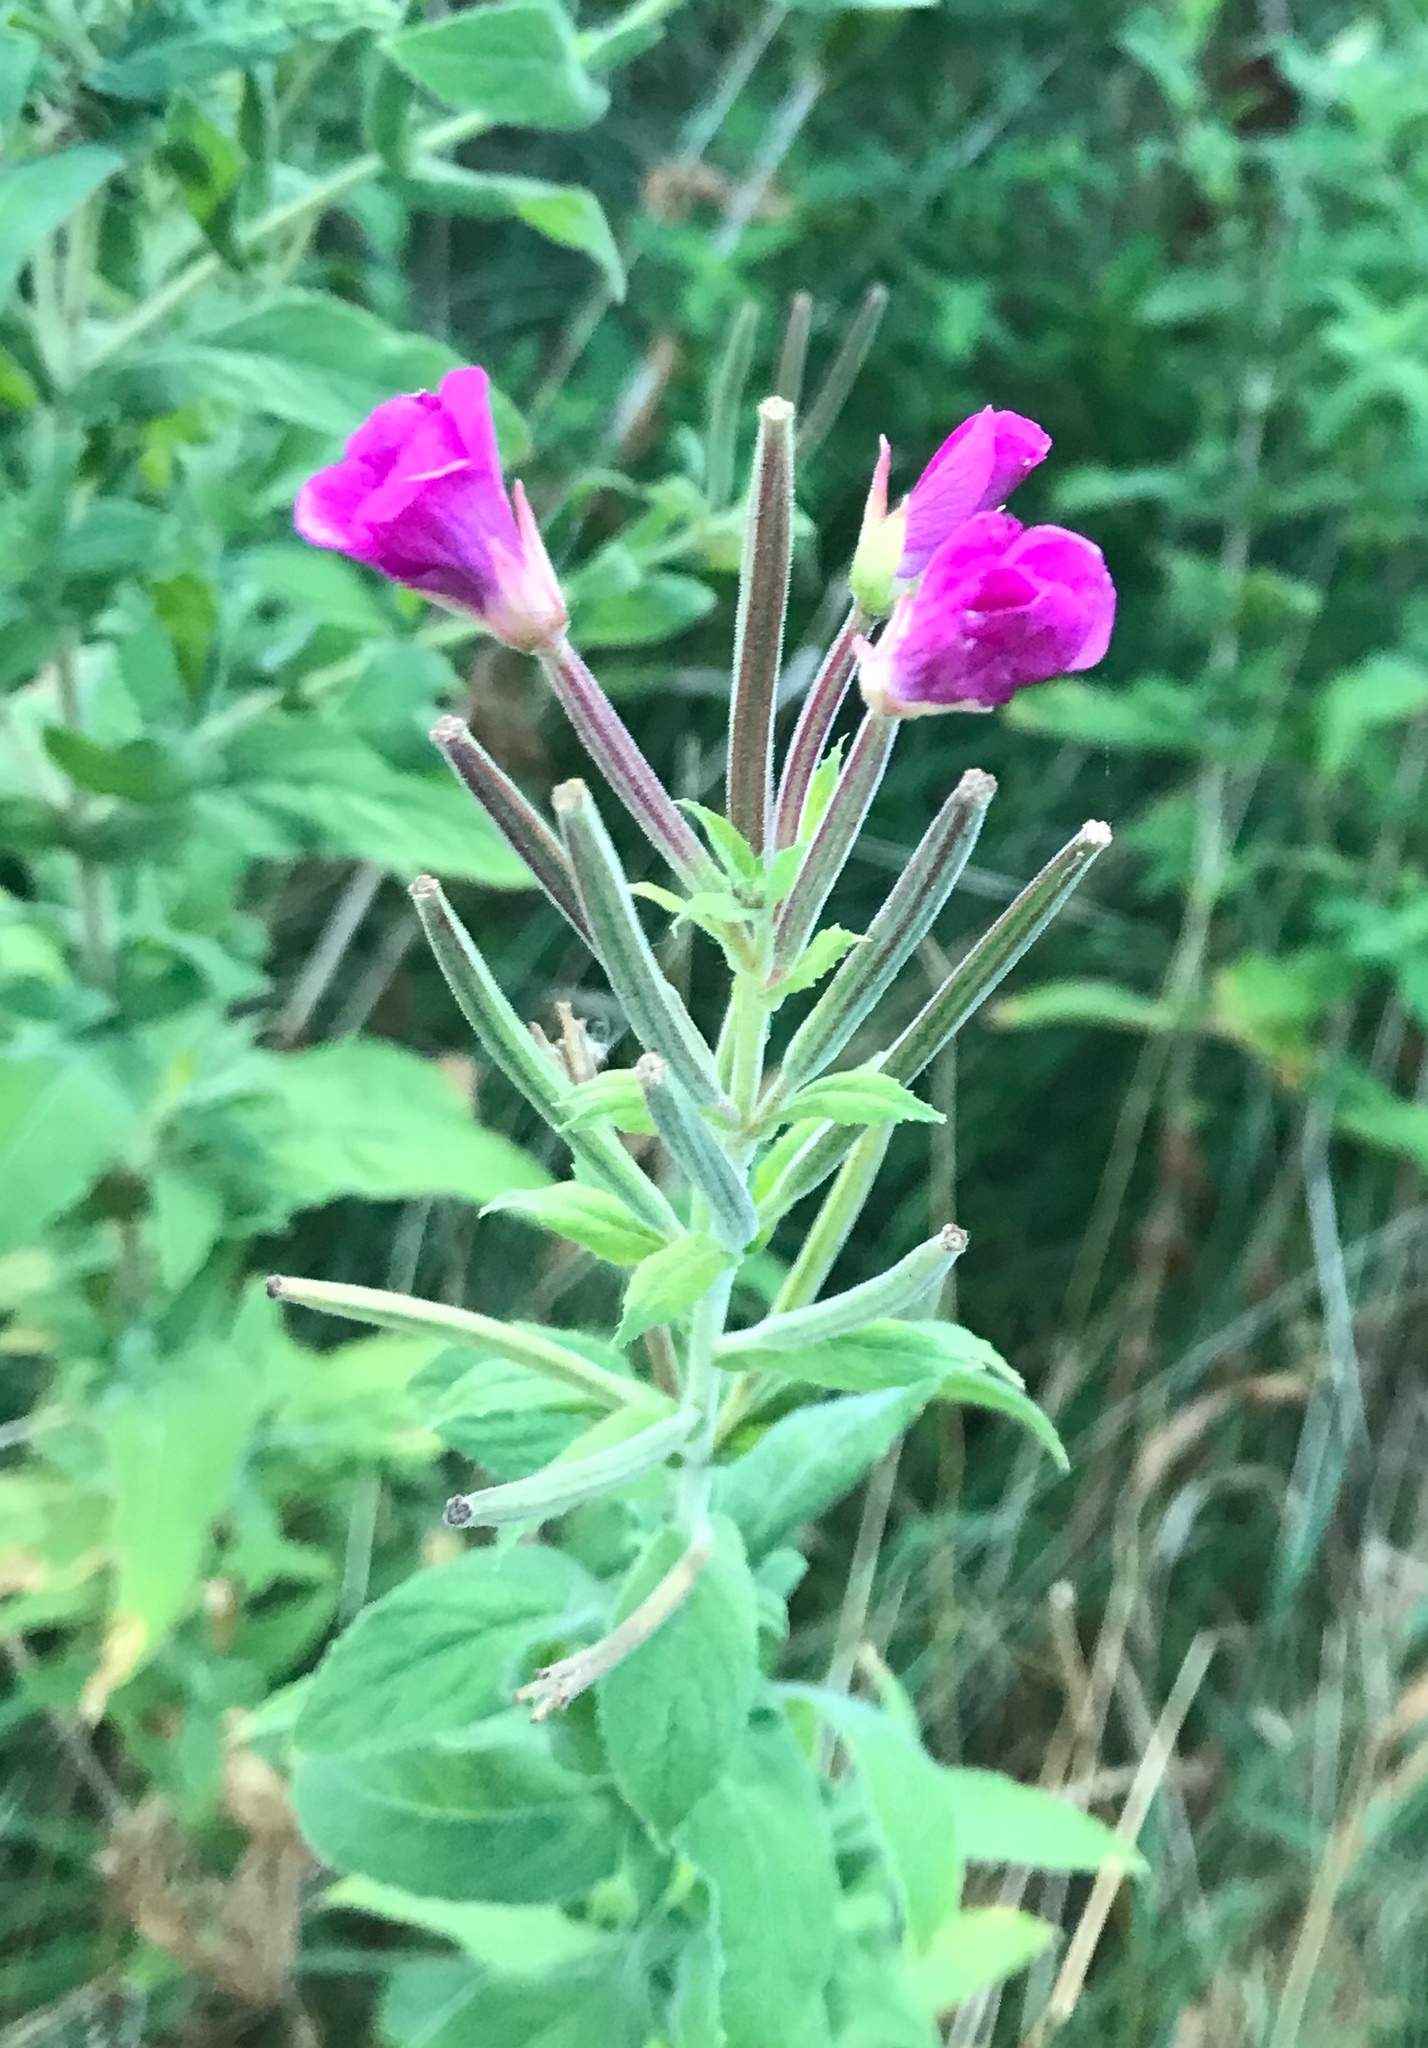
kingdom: Plantae
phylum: Tracheophyta
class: Magnoliopsida
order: Myrtales
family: Onagraceae
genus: Epilobium
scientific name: Epilobium hirsutum
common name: Great willowherb
